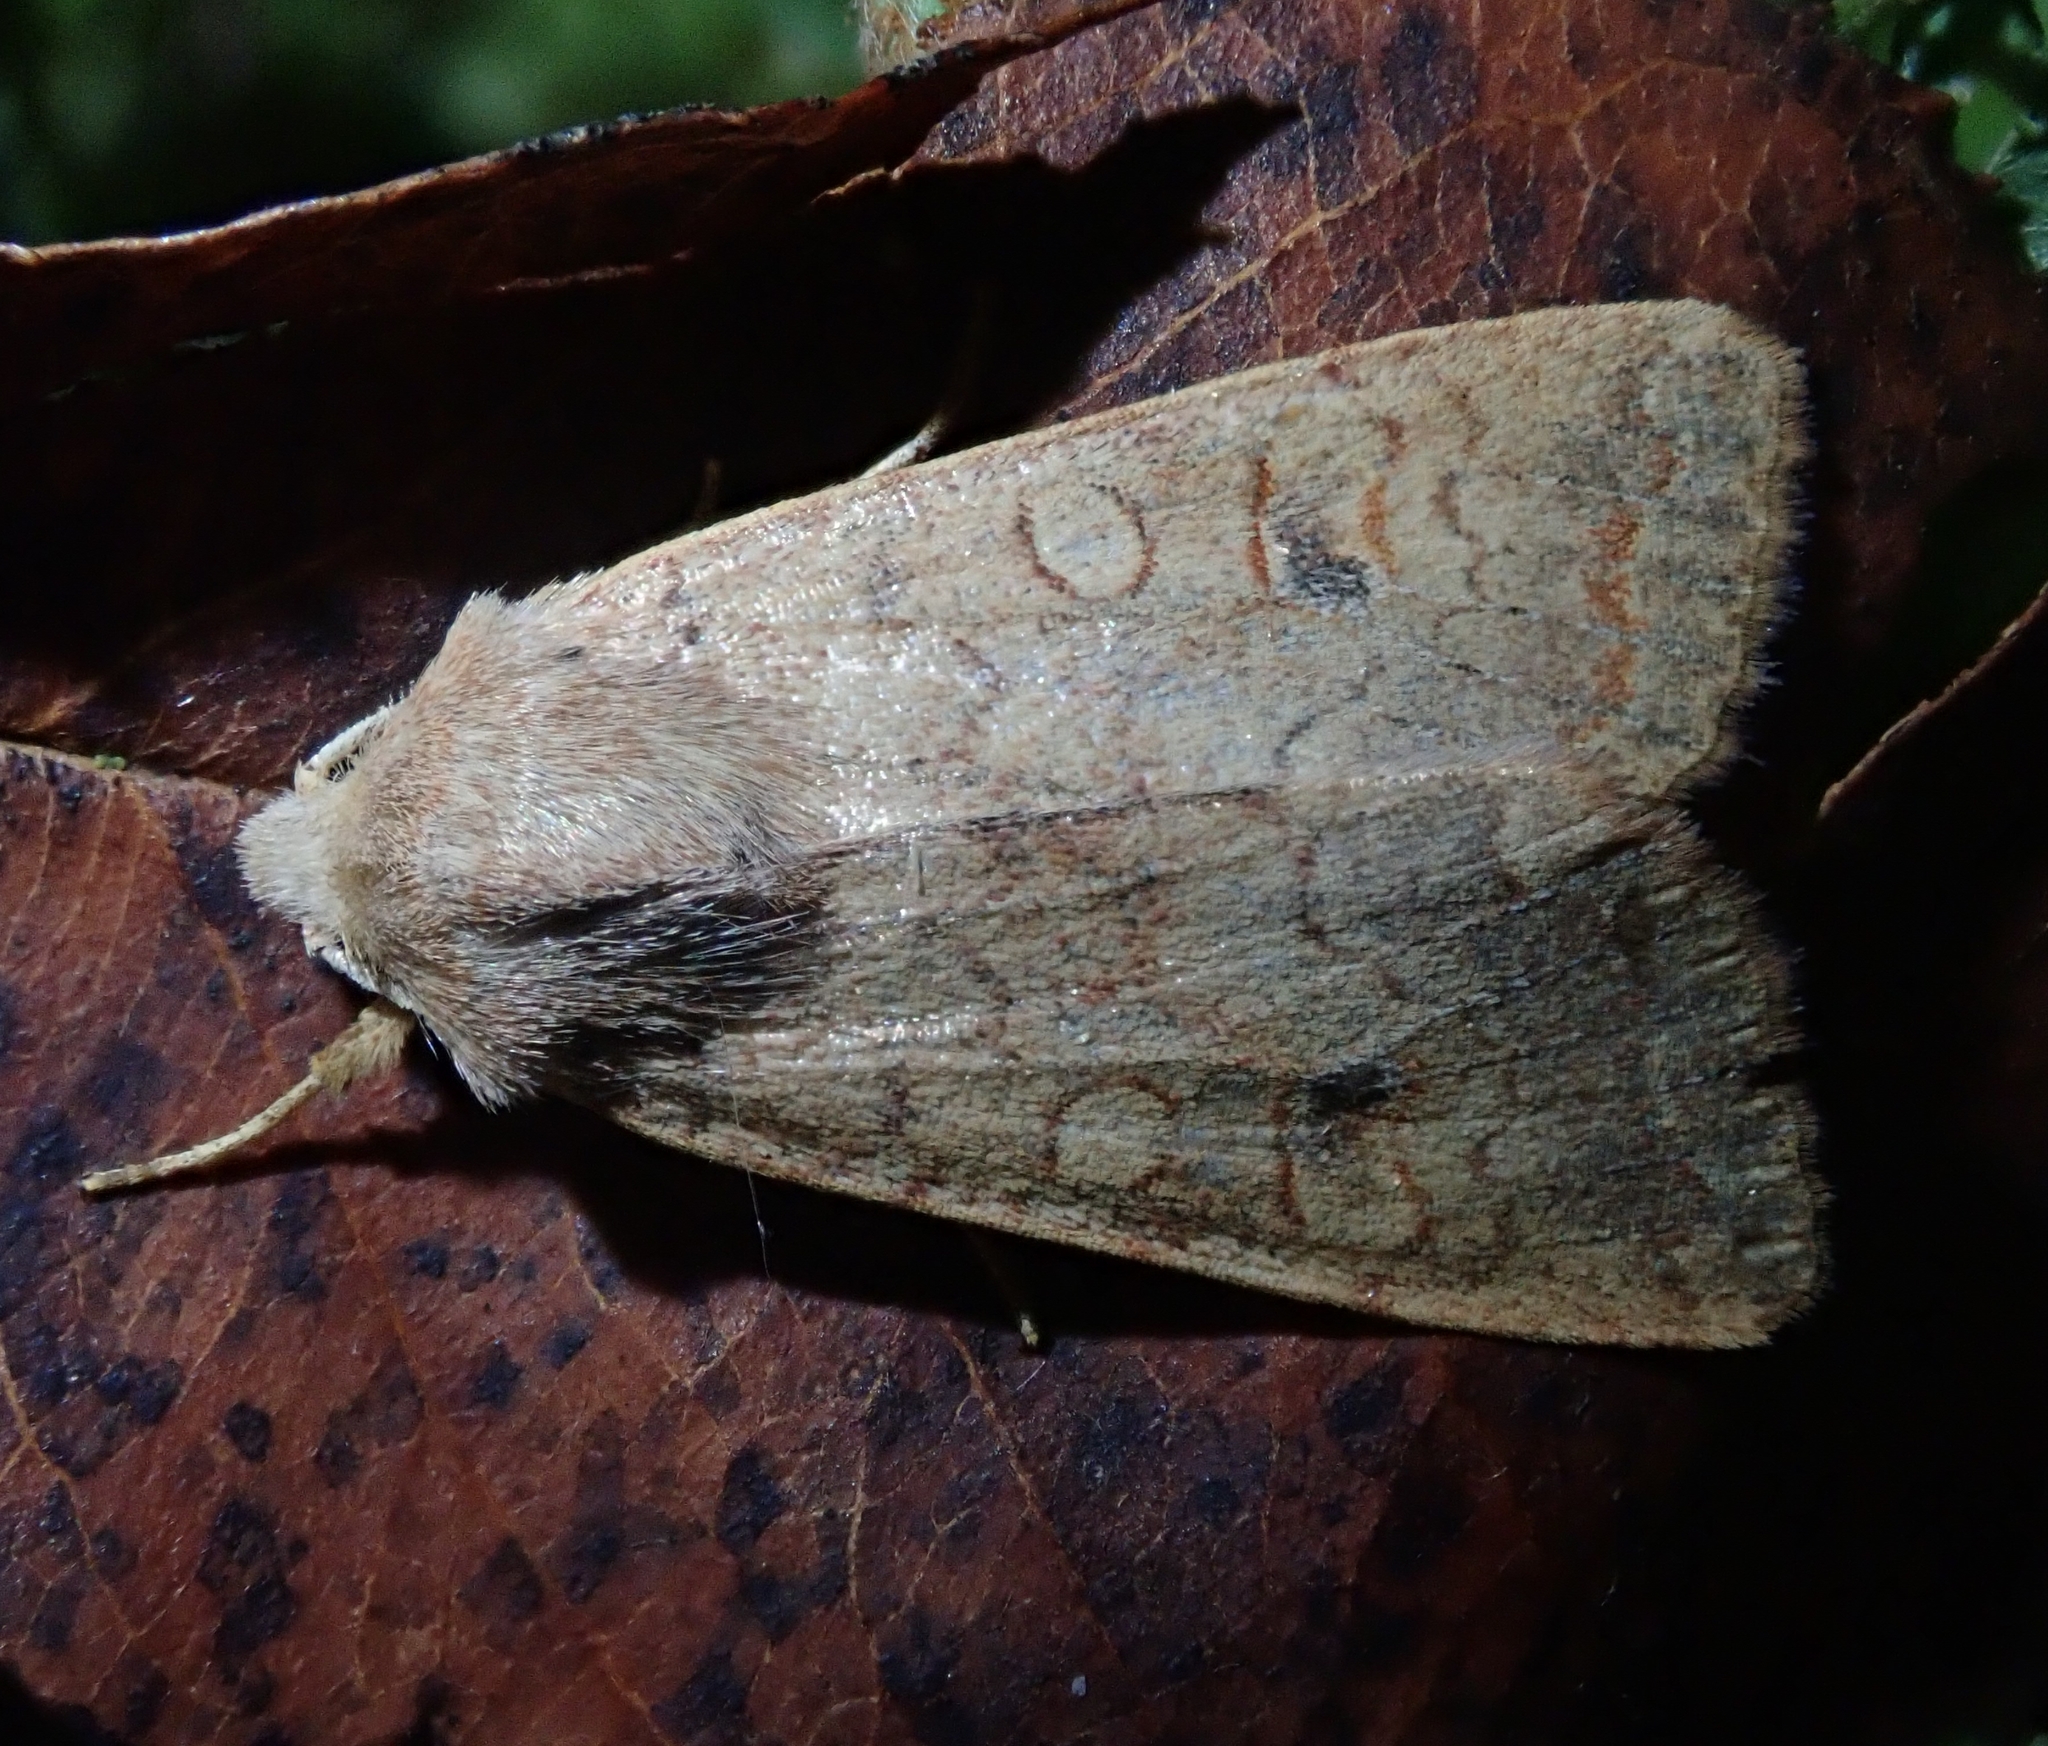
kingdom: Animalia
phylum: Arthropoda
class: Insecta
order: Lepidoptera
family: Noctuidae
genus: Sunira
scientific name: Sunira circellaris
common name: Brick
